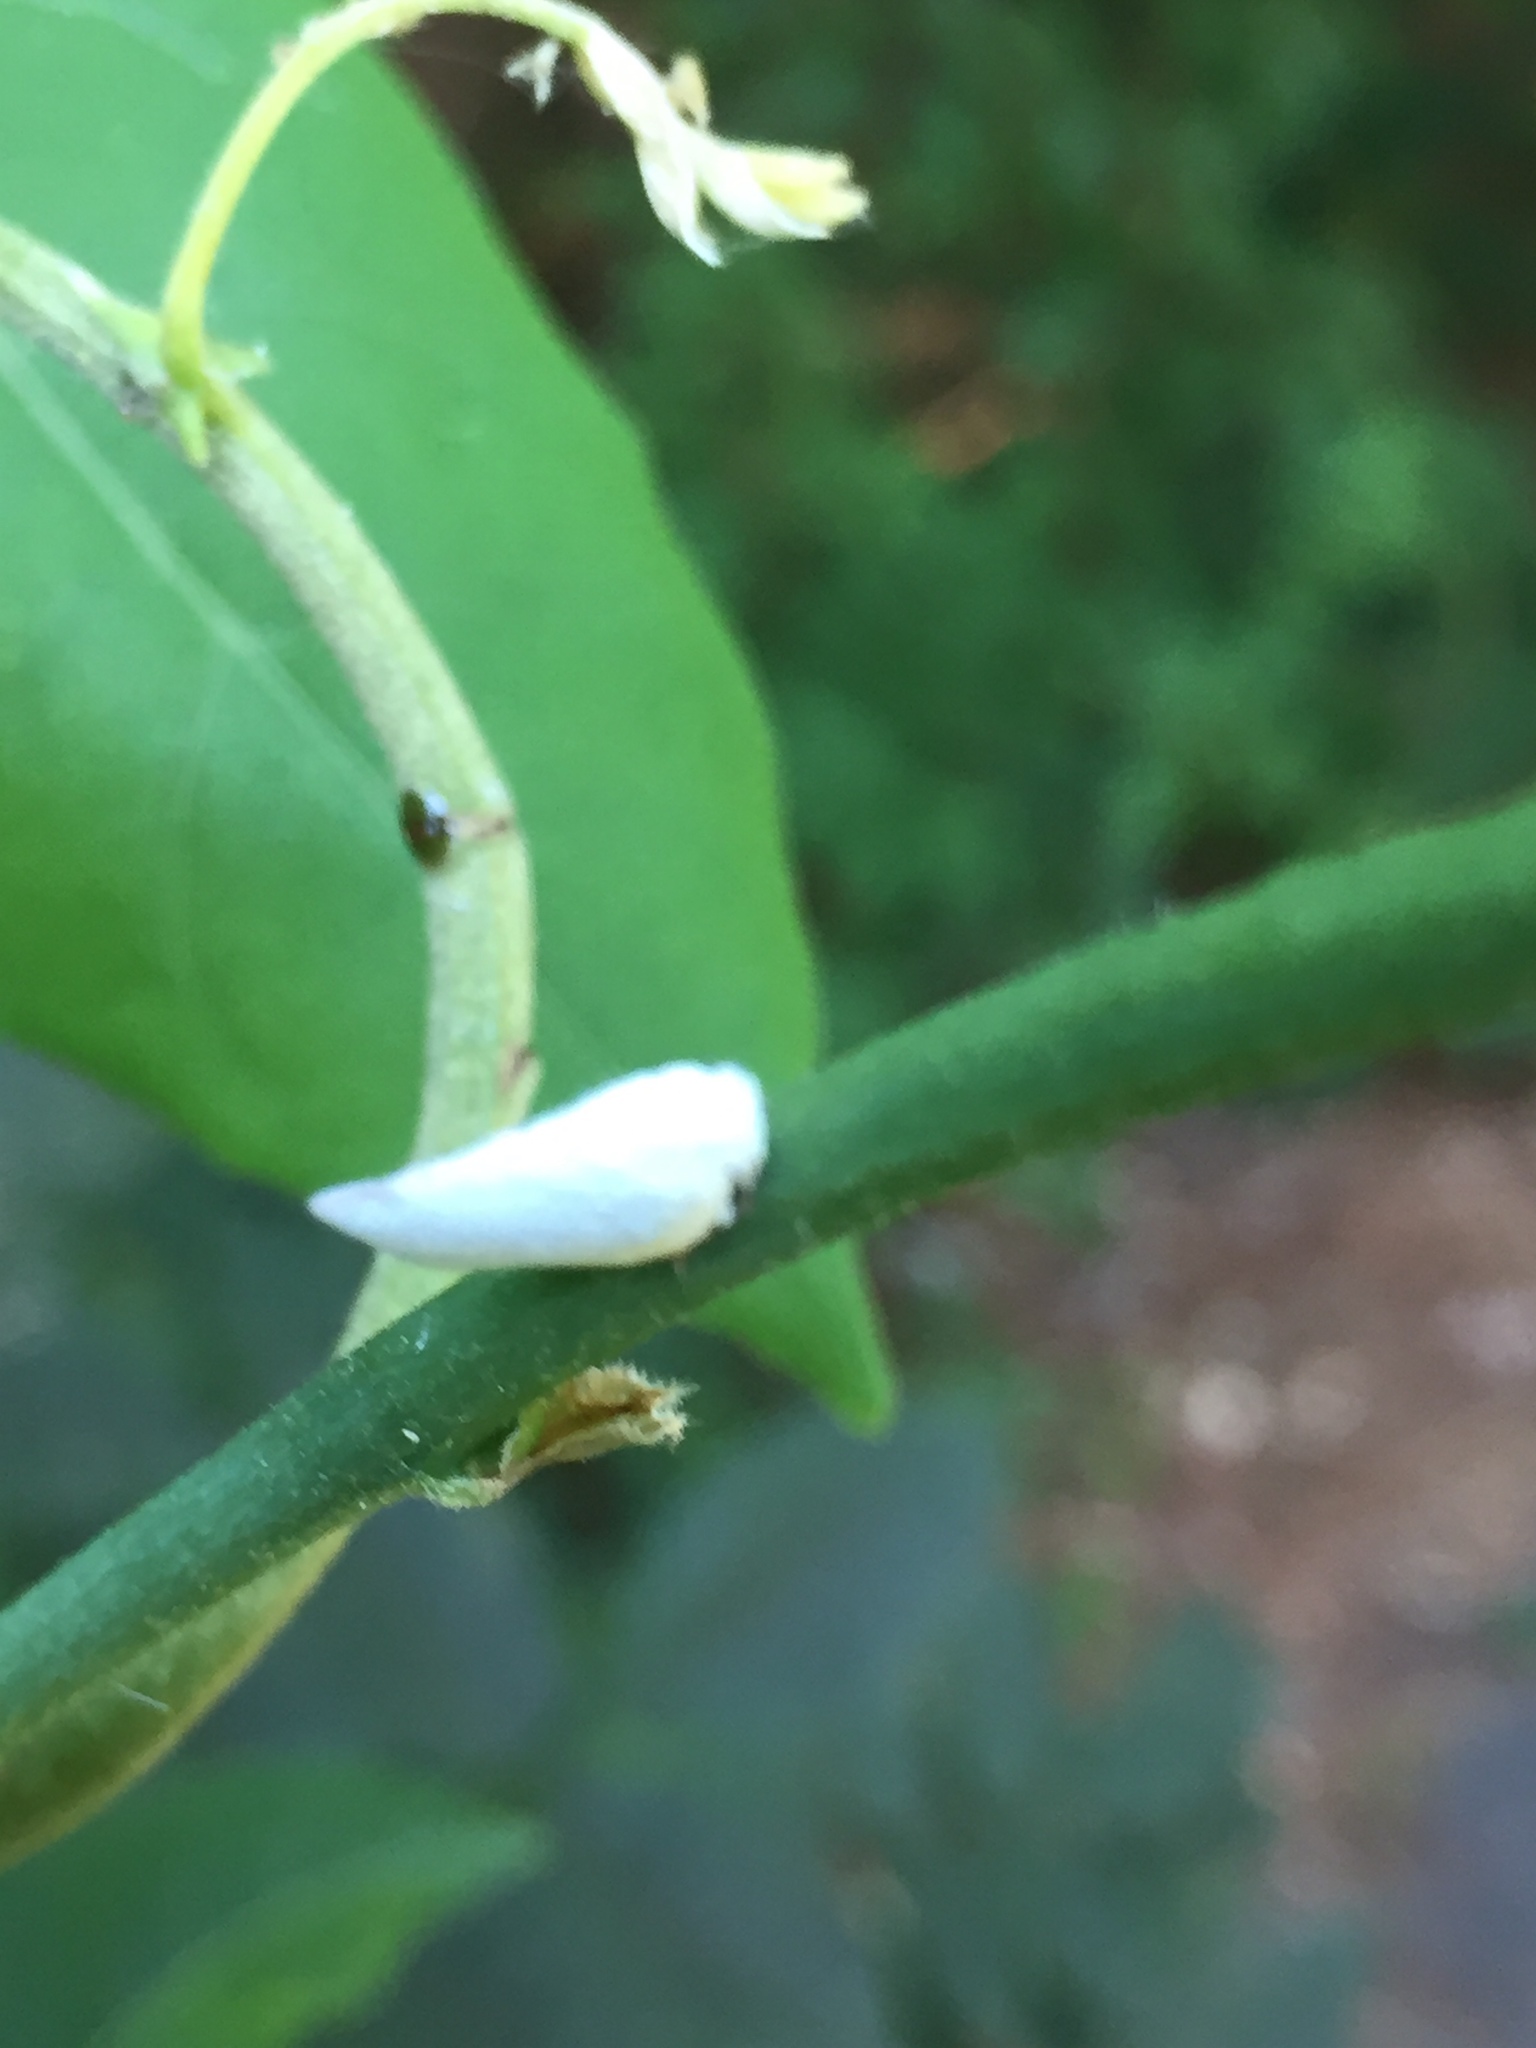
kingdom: Animalia
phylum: Arthropoda
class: Insecta
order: Hemiptera
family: Flatidae
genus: Flatormenis
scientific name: Flatormenis proxima
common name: Northern flatid planthopper
